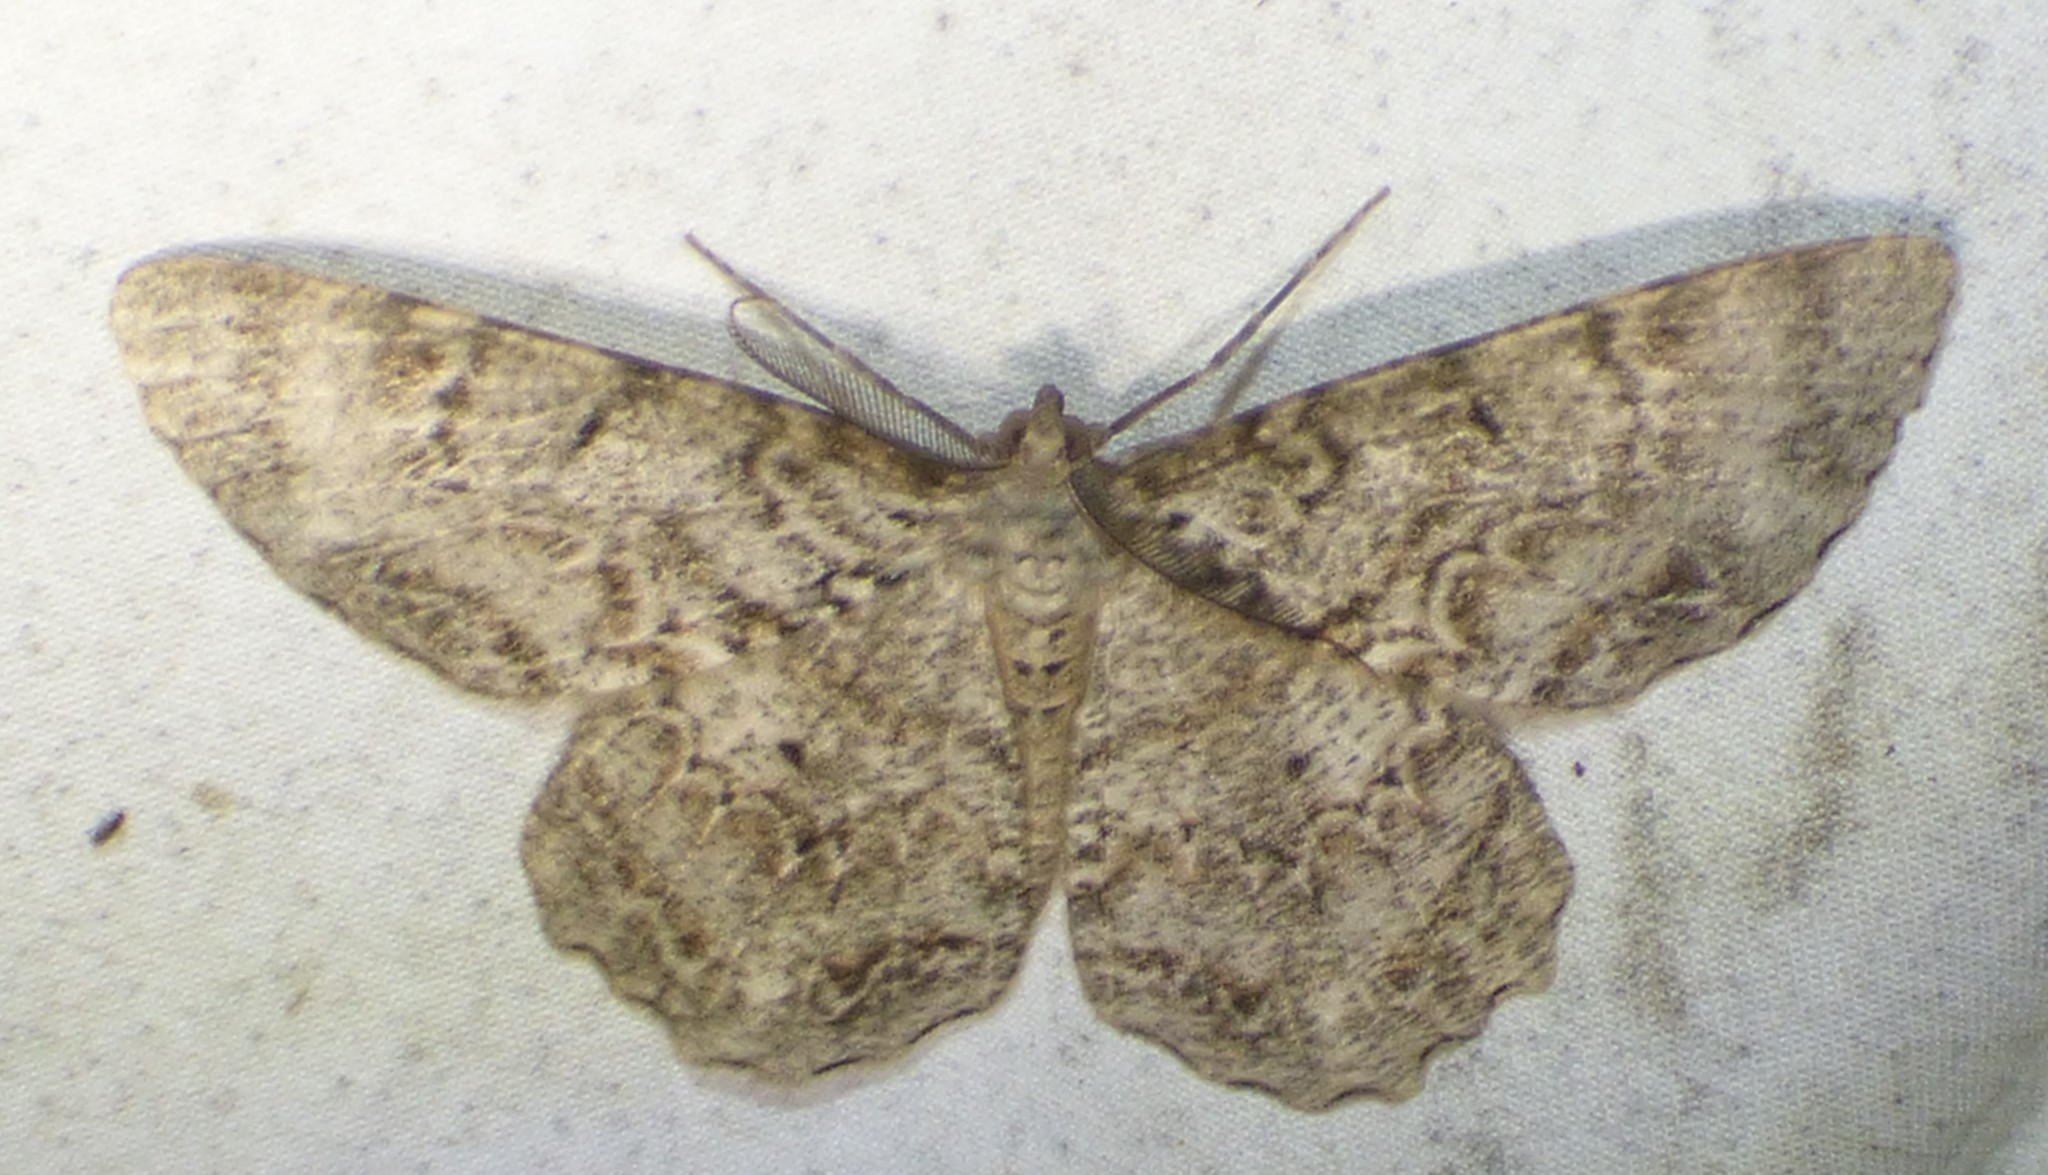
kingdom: Animalia
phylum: Arthropoda
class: Insecta
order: Lepidoptera
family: Geometridae
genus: Epimecis
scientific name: Epimecis hortaria
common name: Tulip-tree beauty
